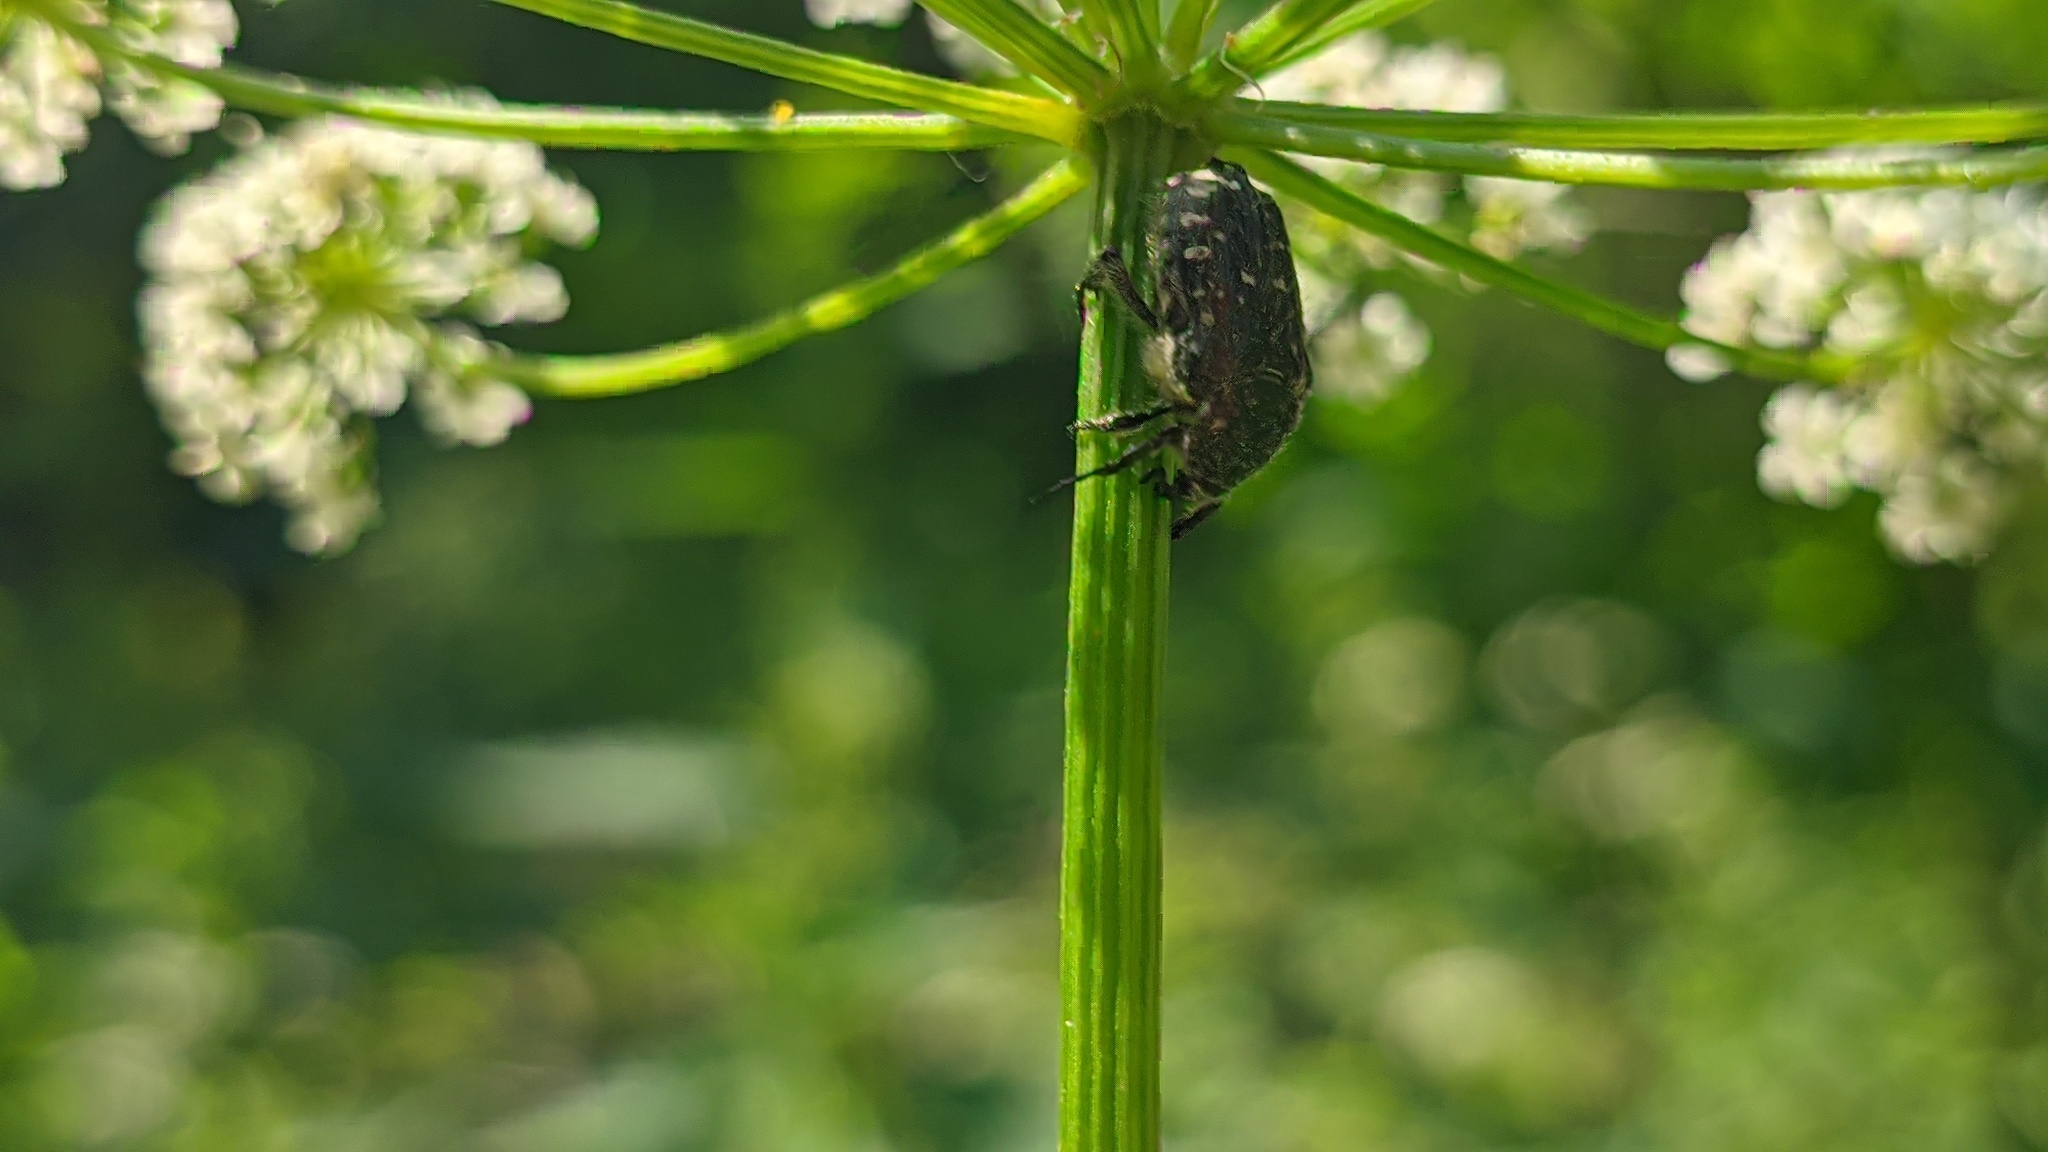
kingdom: Animalia
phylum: Arthropoda
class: Insecta
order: Coleoptera
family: Scarabaeidae
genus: Oxythyrea
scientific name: Oxythyrea funesta
